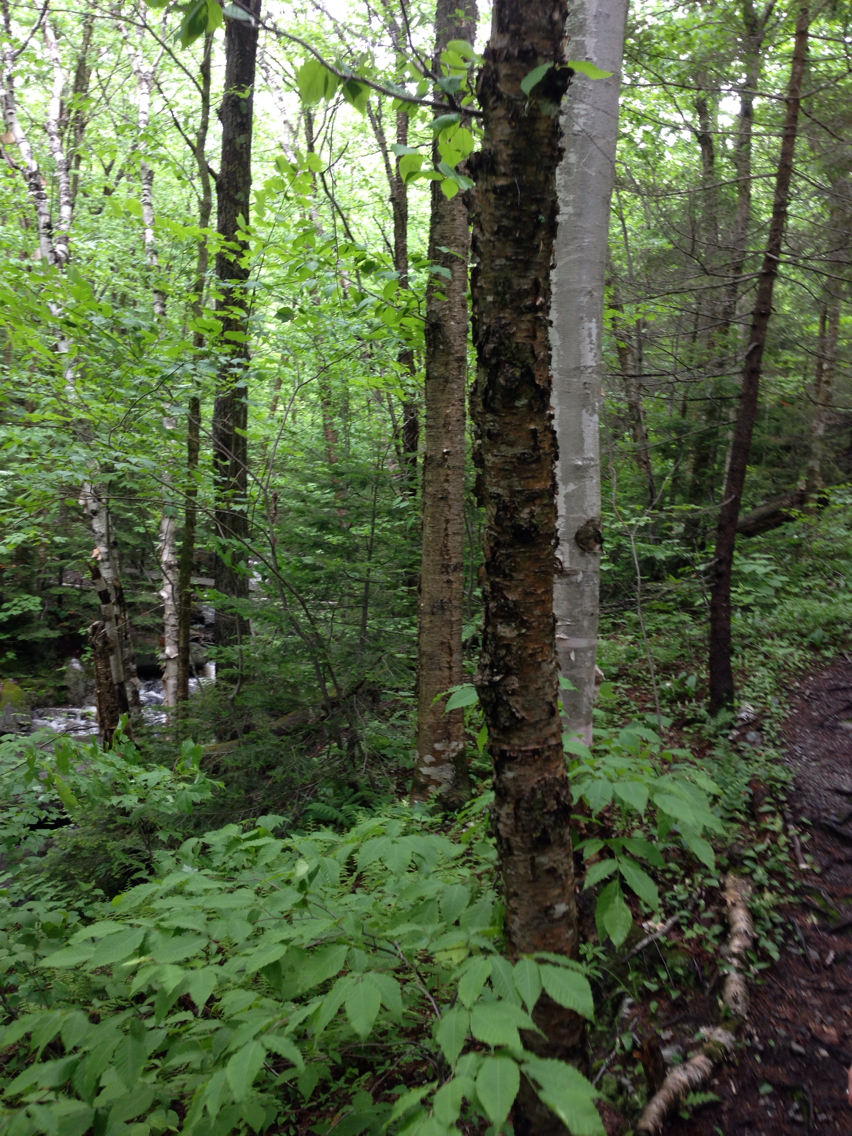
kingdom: Plantae
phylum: Tracheophyta
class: Magnoliopsida
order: Fagales
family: Betulaceae
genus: Betula
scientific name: Betula alleghaniensis
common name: Yellow birch
